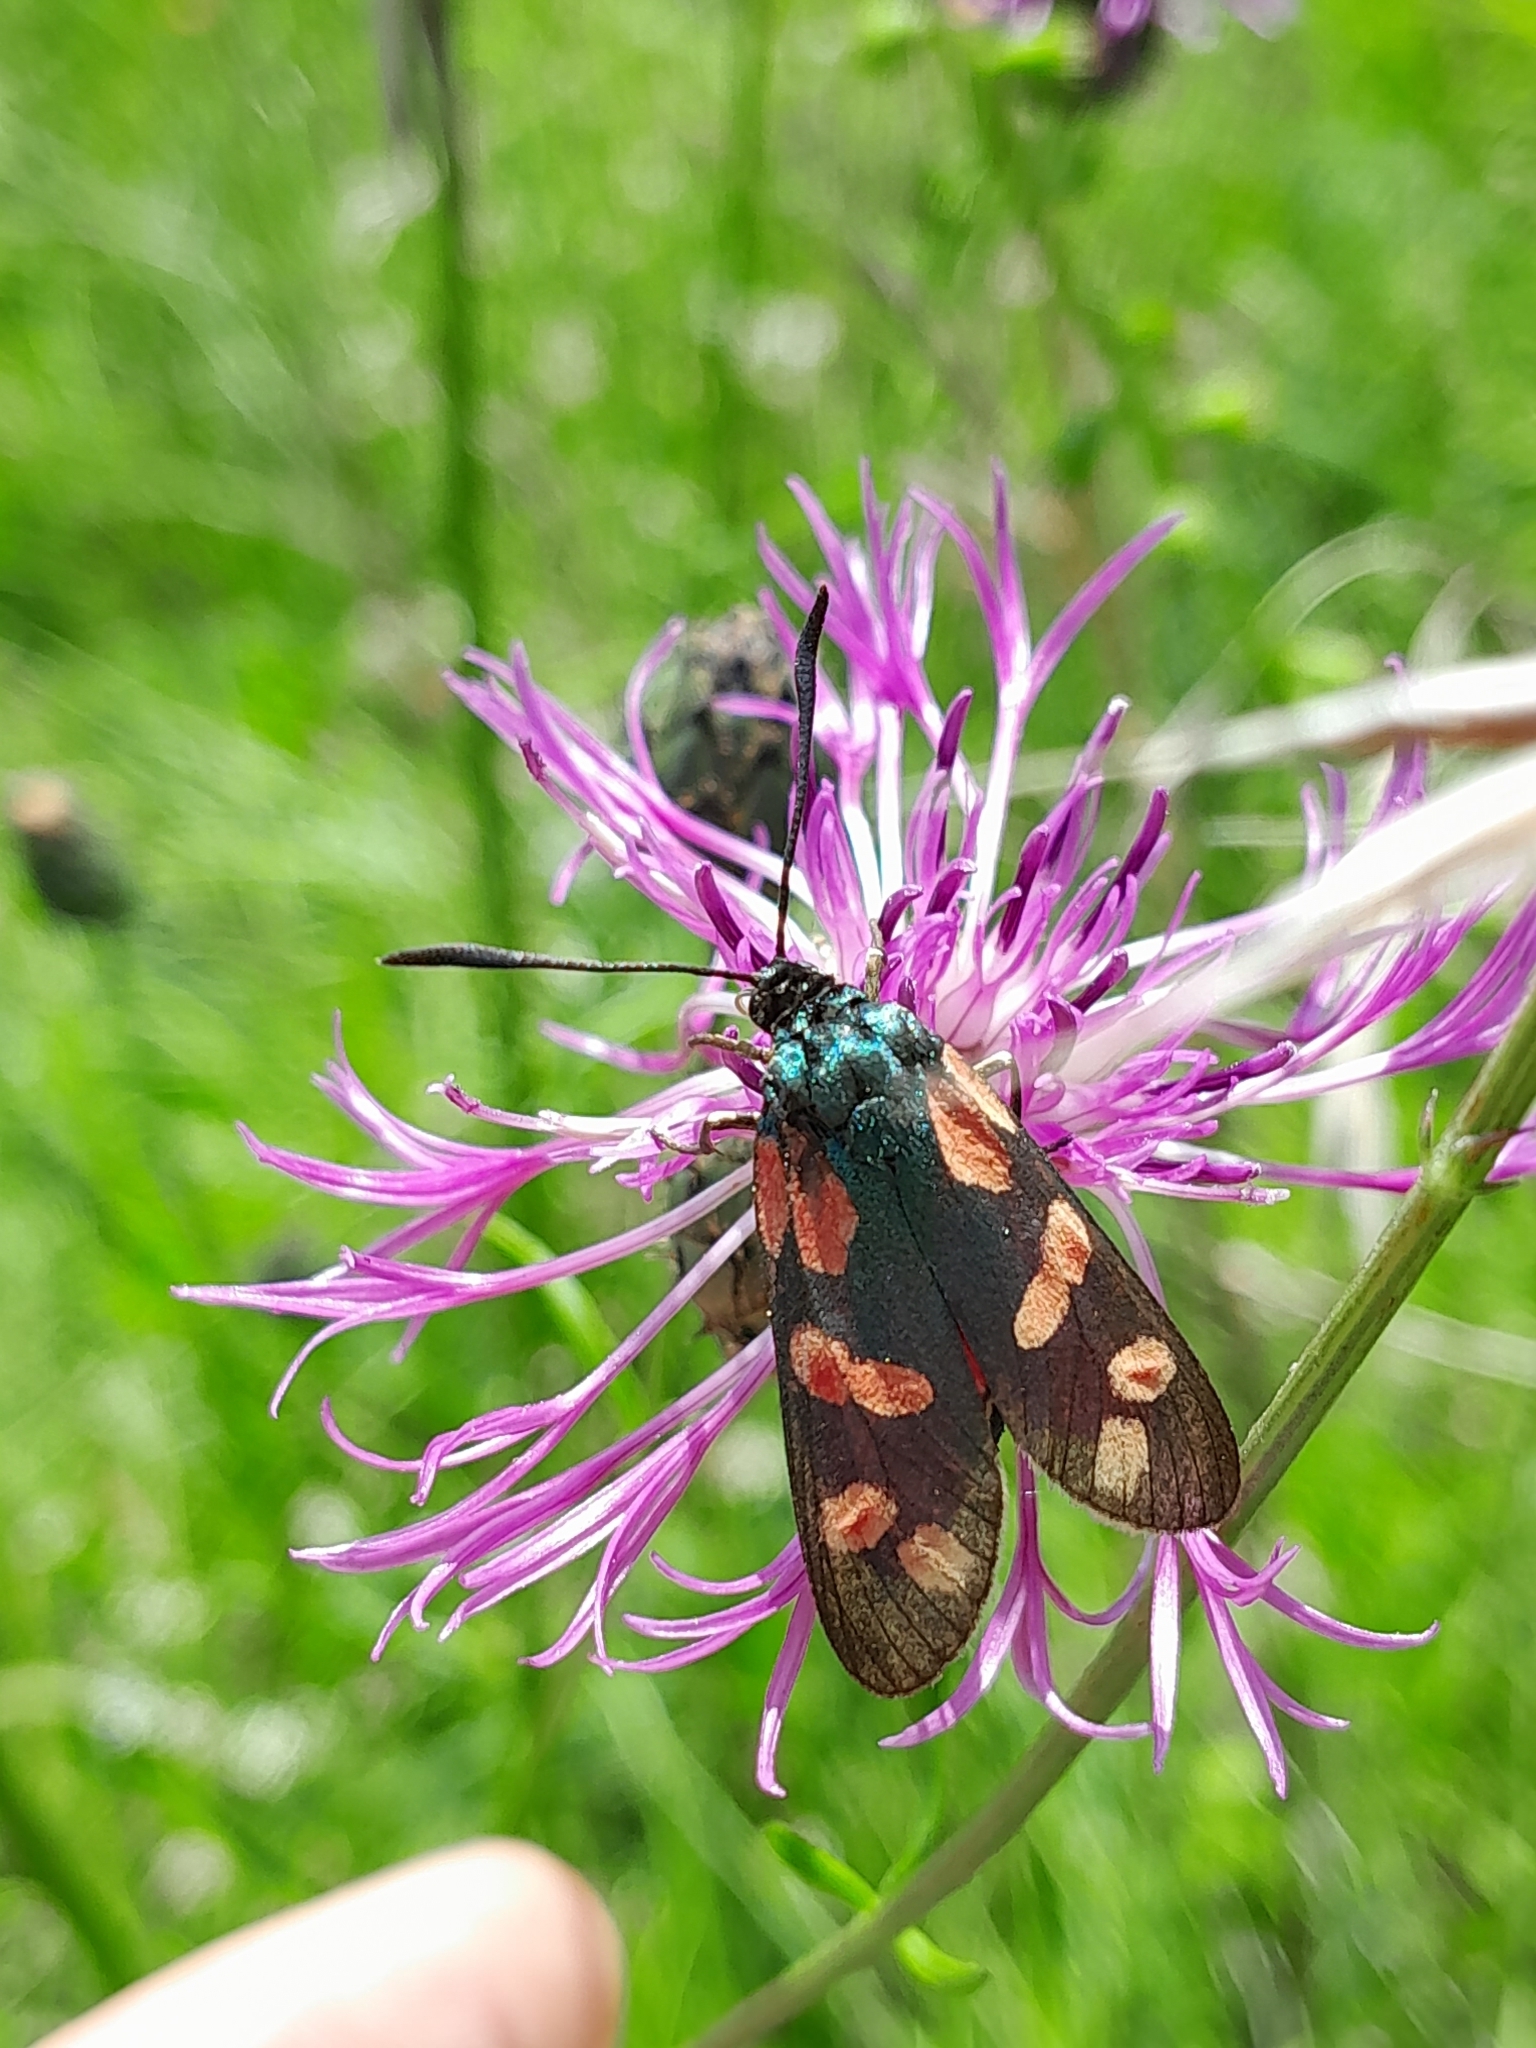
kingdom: Animalia
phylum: Arthropoda
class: Insecta
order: Lepidoptera
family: Zygaenidae
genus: Zygaena
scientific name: Zygaena filipendulae
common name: Six-spot burnet
